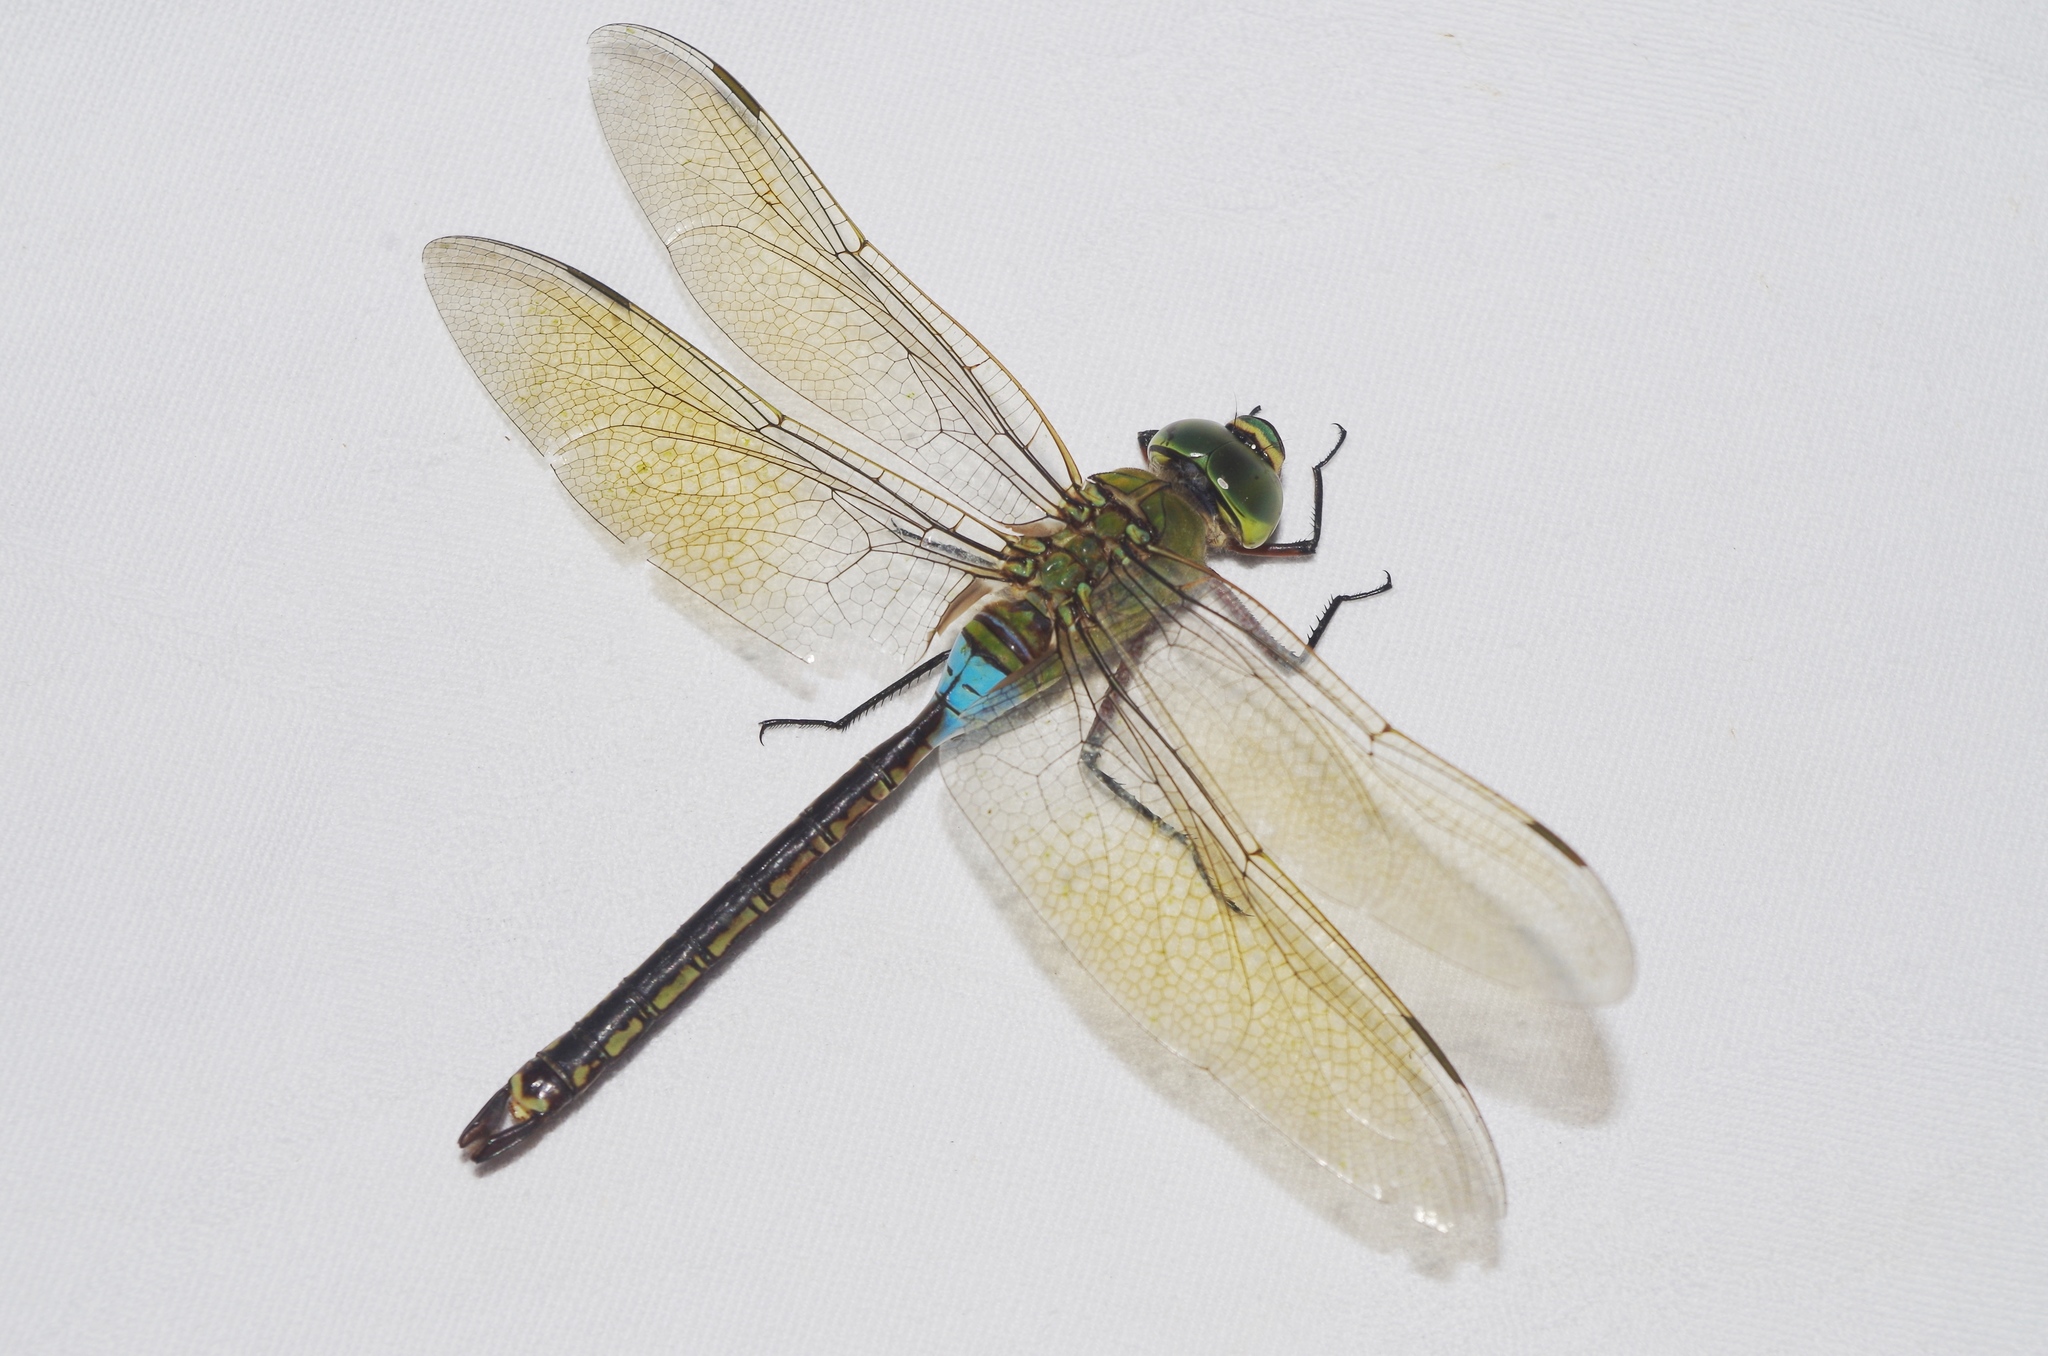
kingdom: Animalia
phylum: Arthropoda
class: Insecta
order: Odonata
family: Aeshnidae
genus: Anax
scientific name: Anax julius
